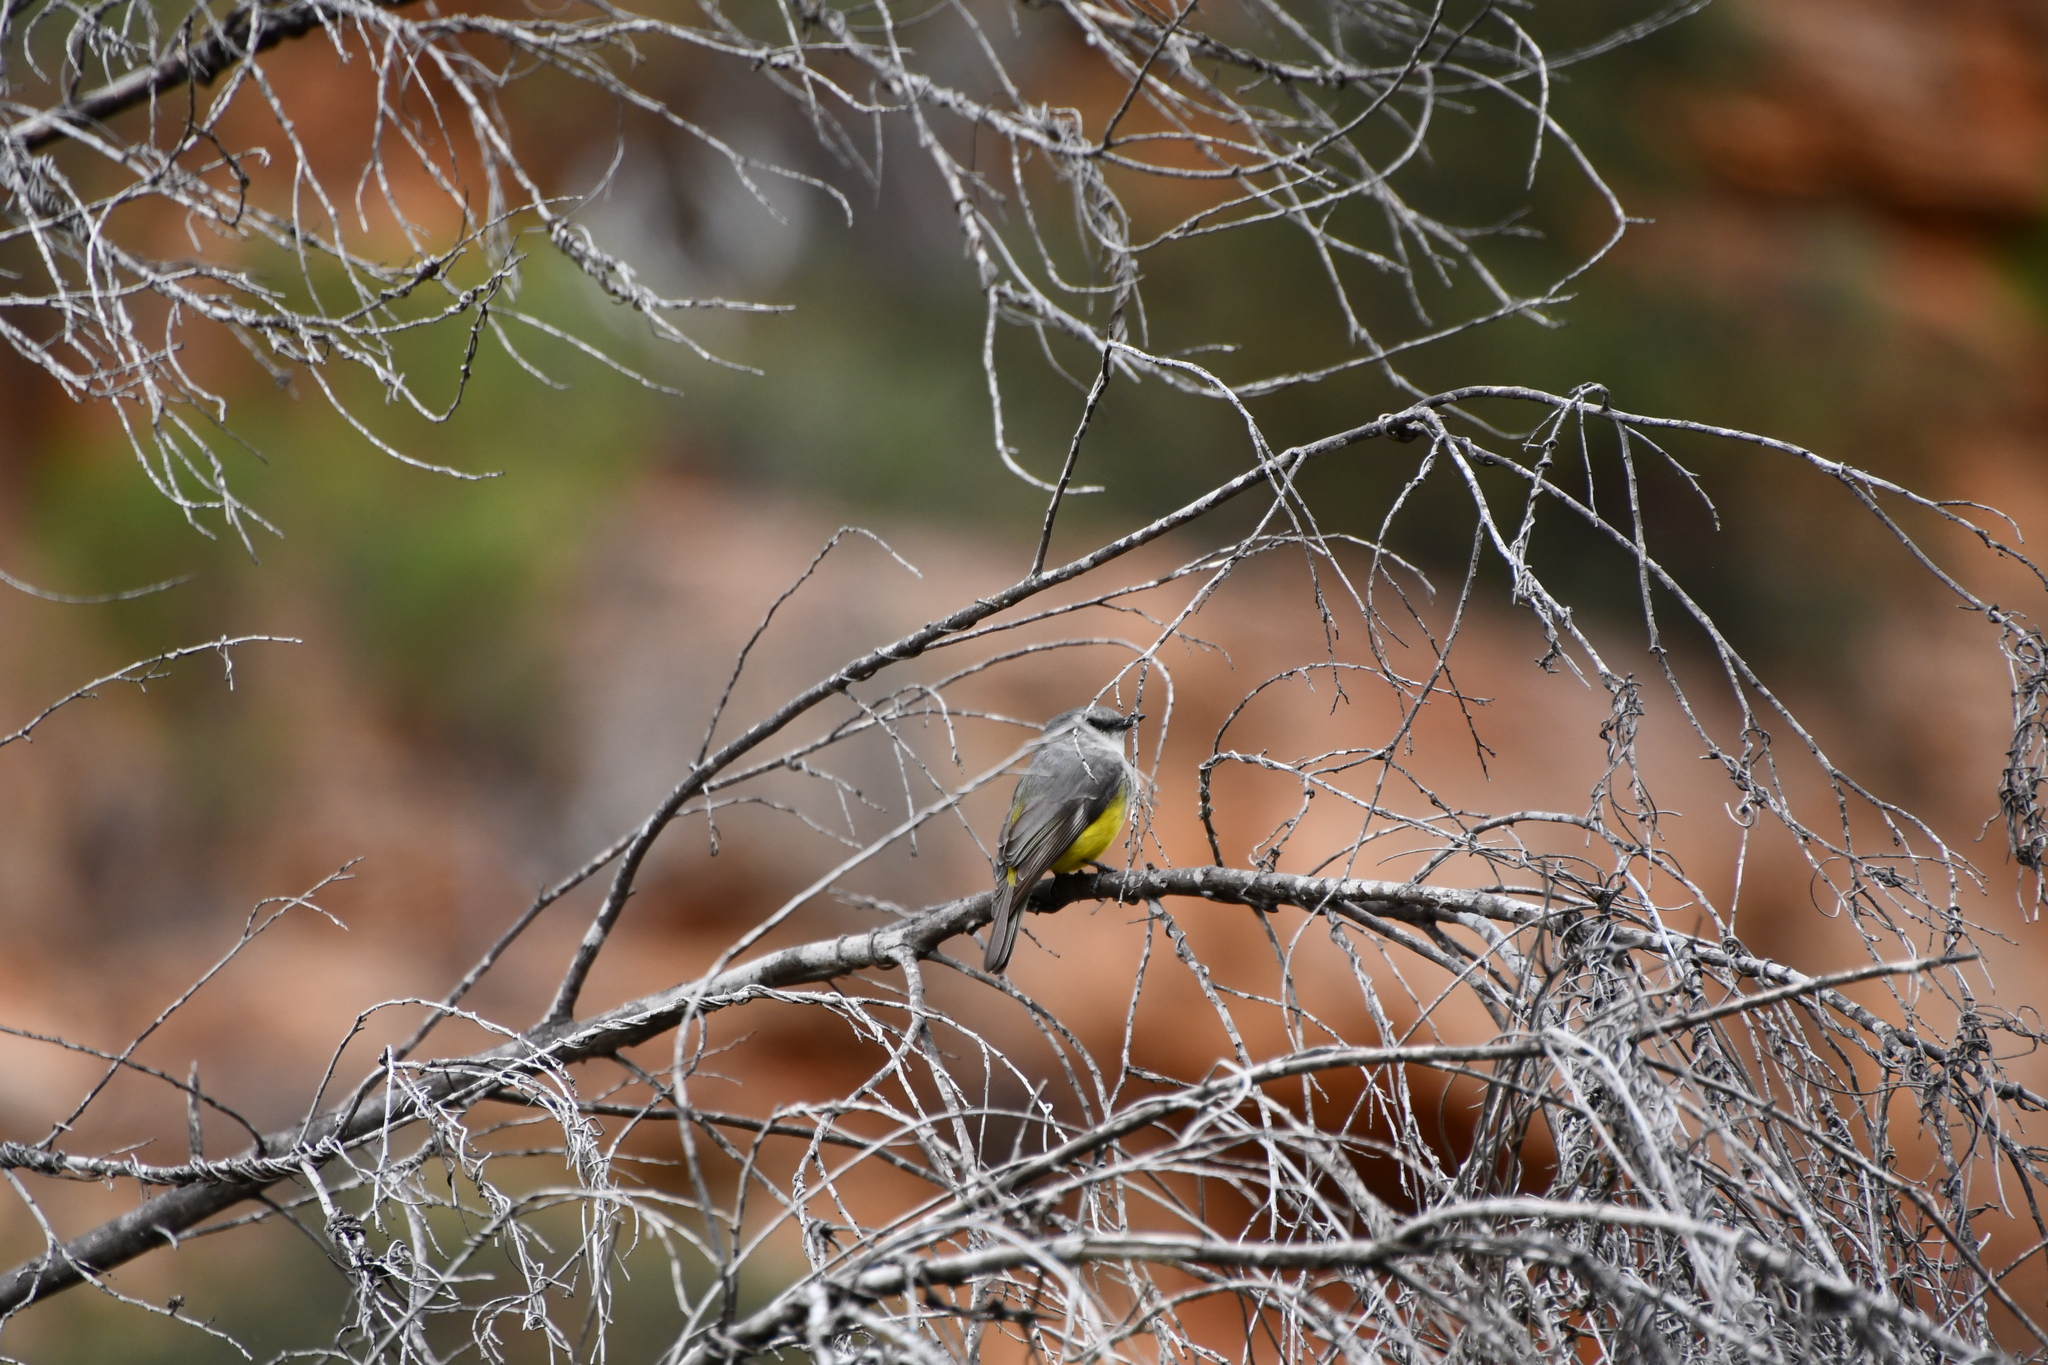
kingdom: Animalia
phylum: Chordata
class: Aves
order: Passeriformes
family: Petroicidae
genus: Eopsaltria
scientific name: Eopsaltria griseogularis
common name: Western yellow robin
